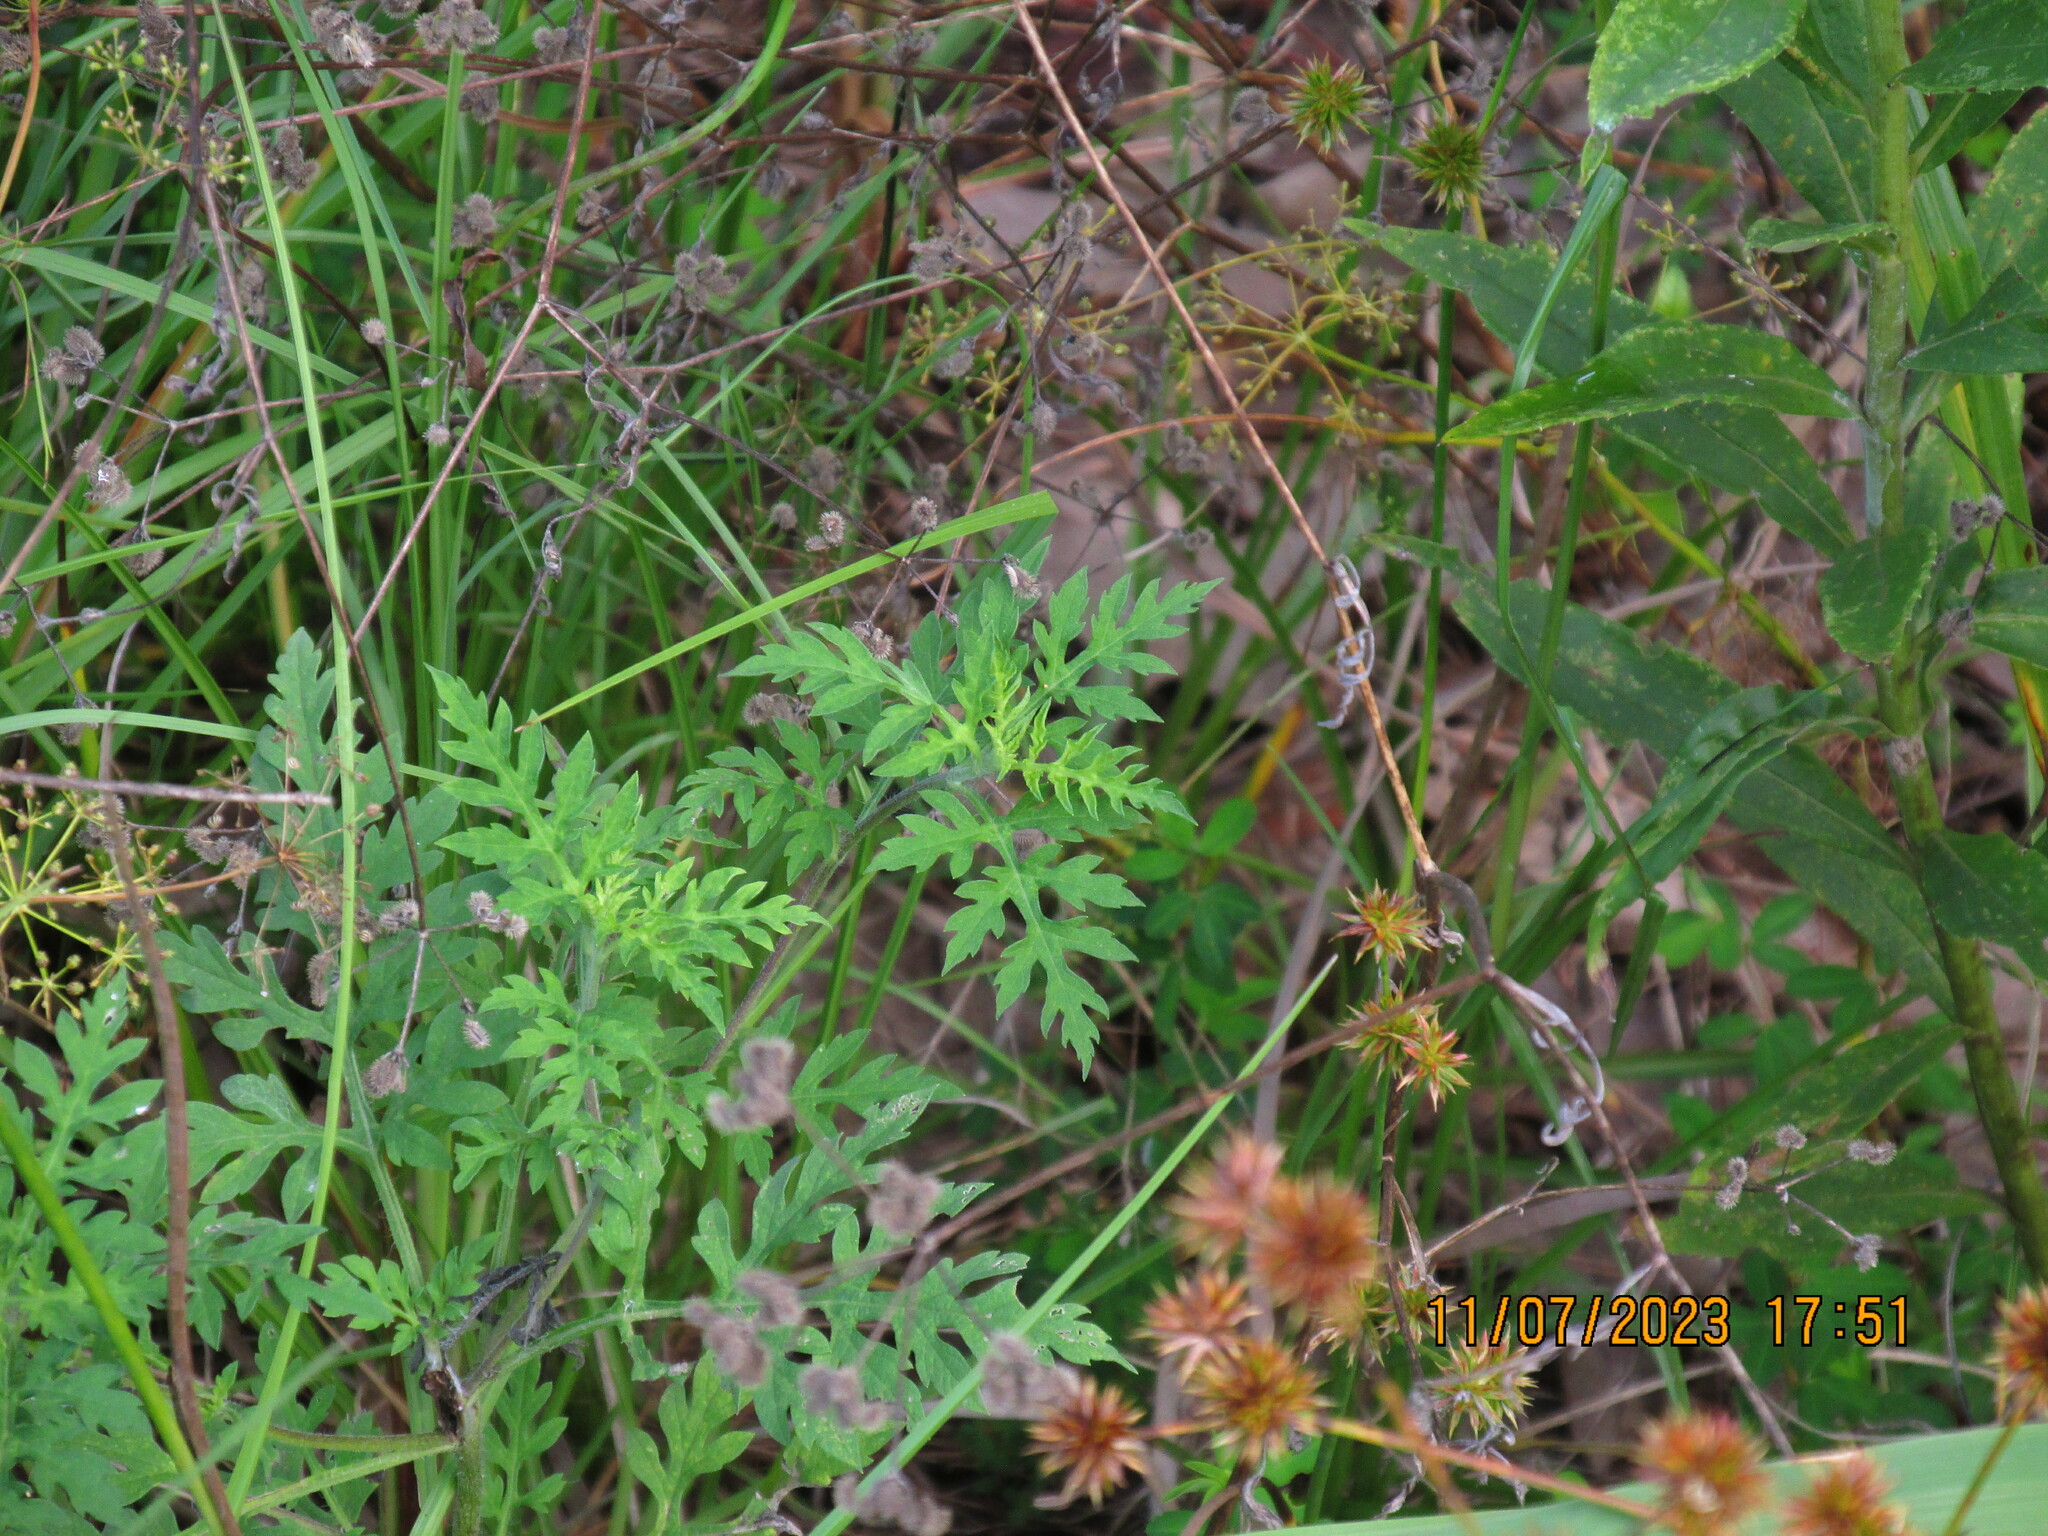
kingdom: Plantae
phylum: Tracheophyta
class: Magnoliopsida
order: Asterales
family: Asteraceae
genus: Ambrosia
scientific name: Ambrosia artemisiifolia
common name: Annual ragweed
